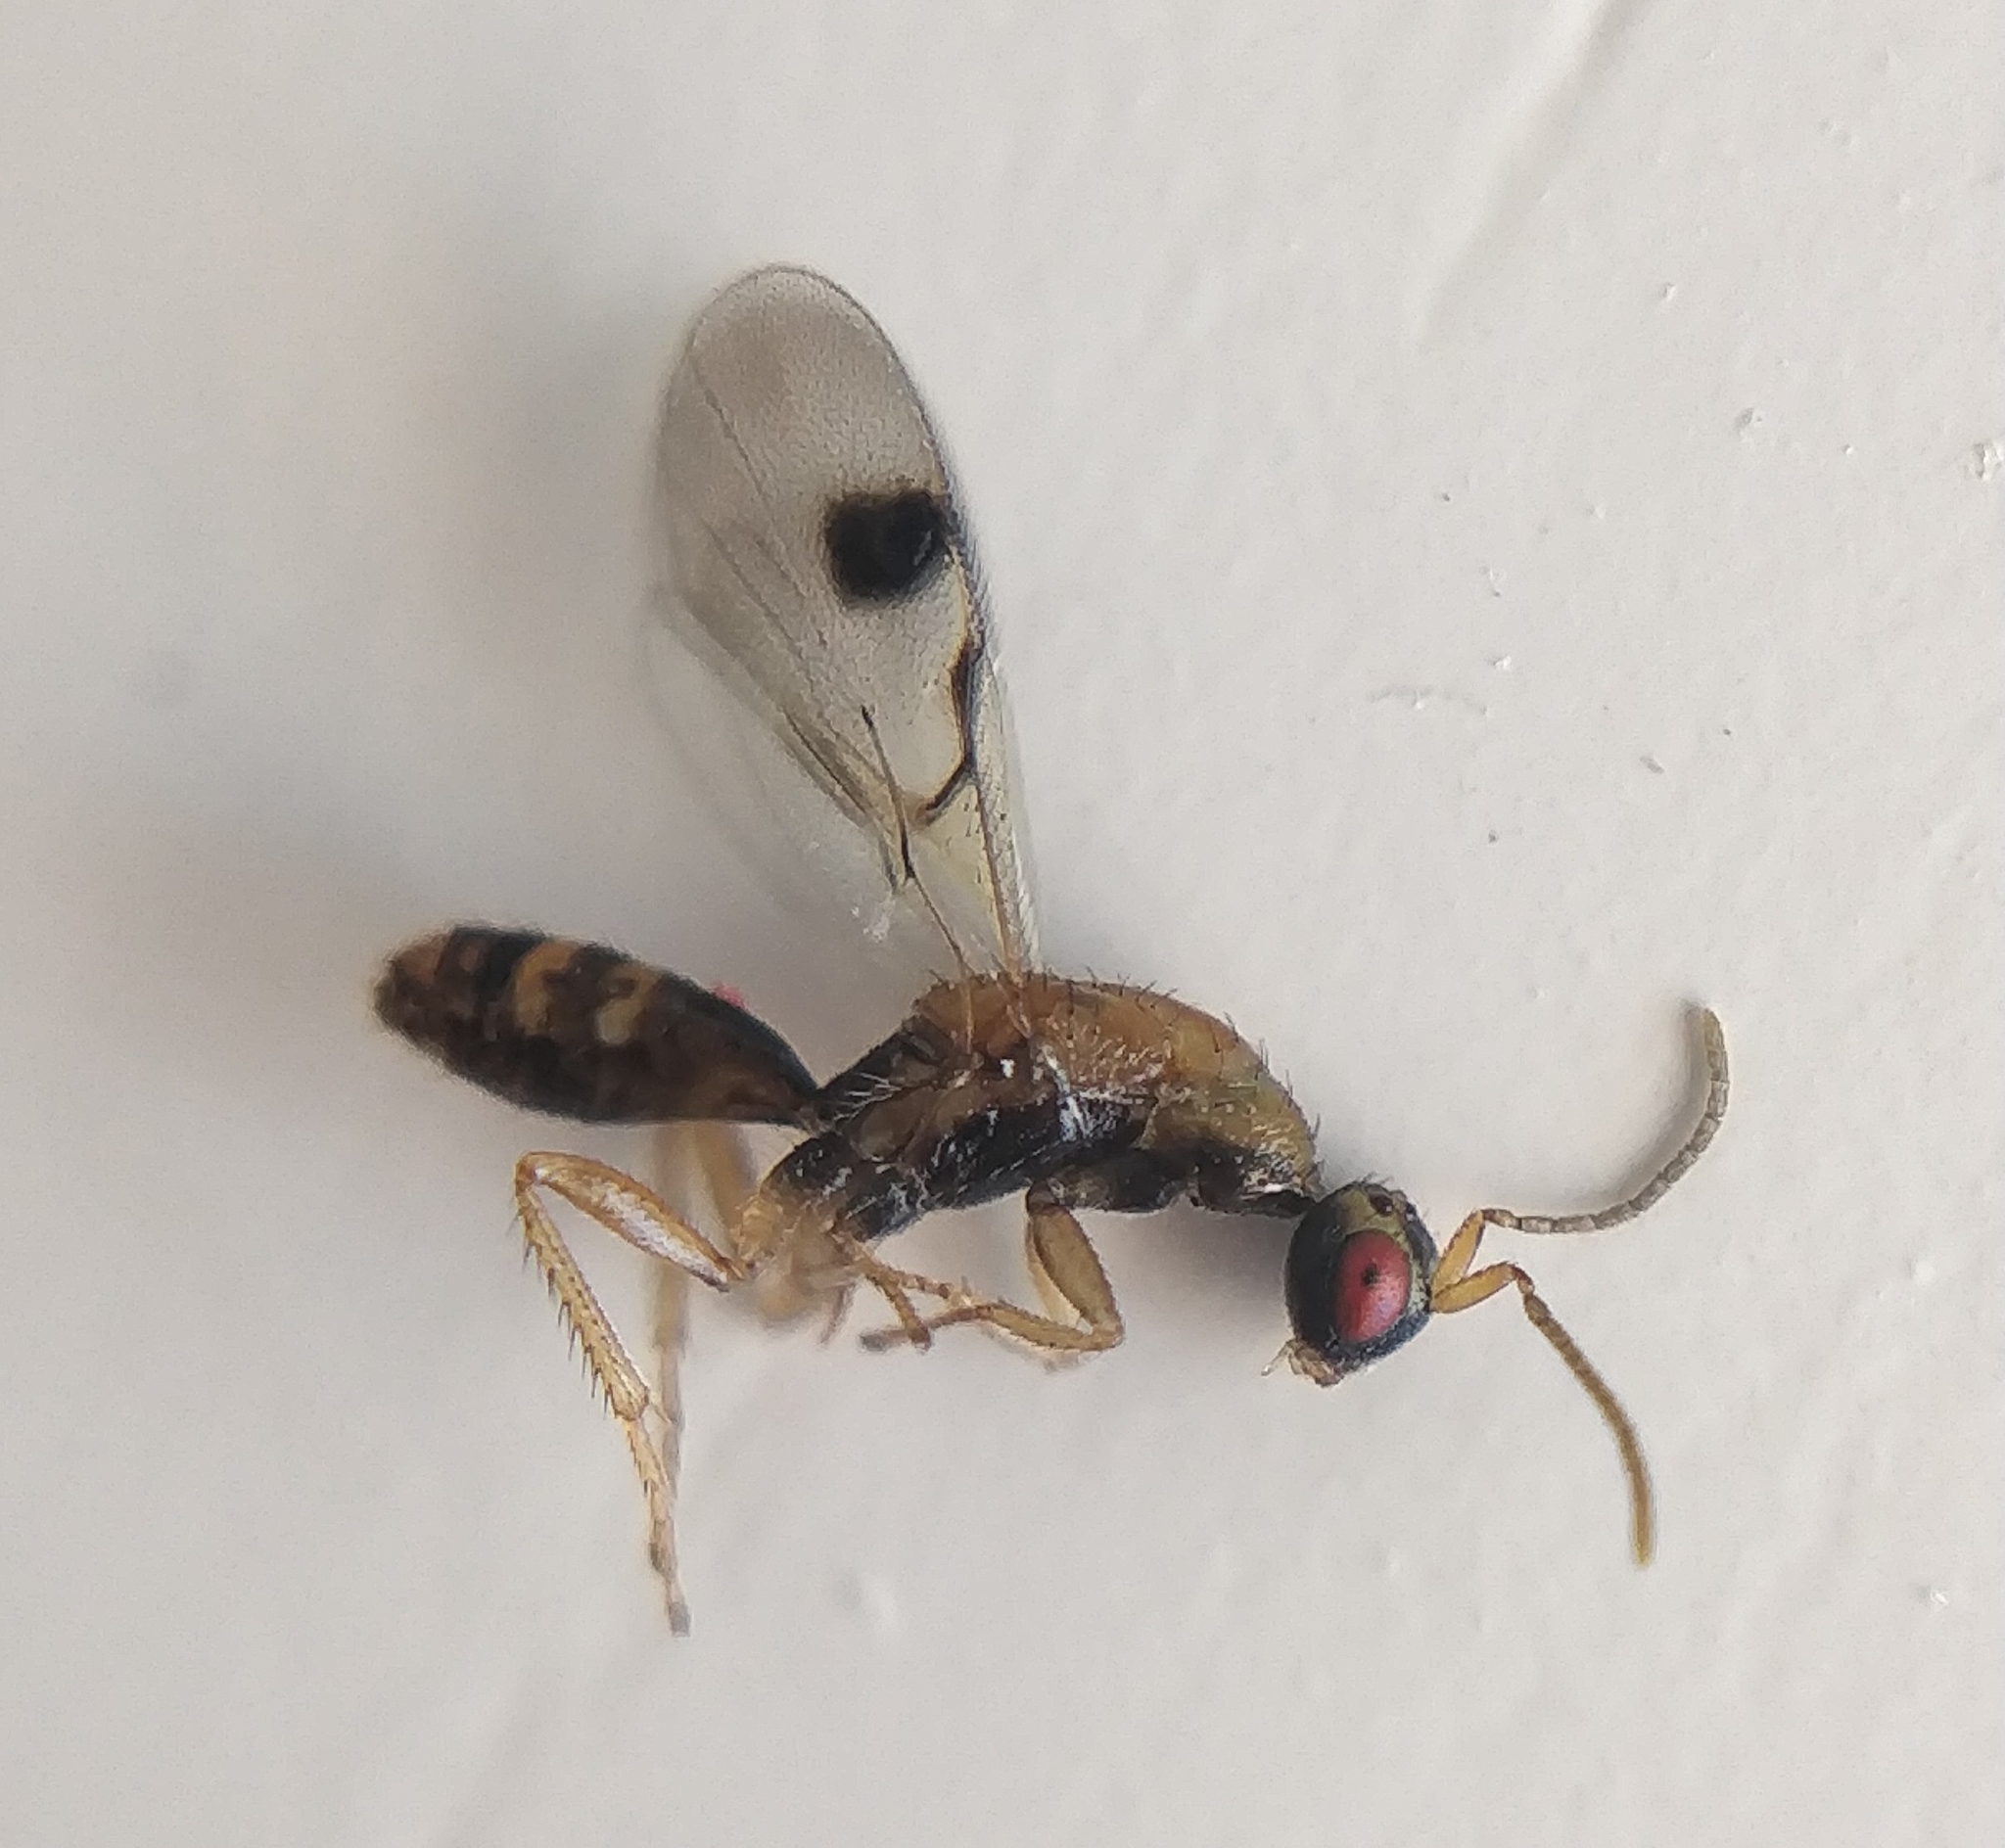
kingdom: Animalia
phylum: Arthropoda
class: Insecta
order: Hymenoptera
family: Torymidae
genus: Megastigmus
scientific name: Megastigmus transvaalensis
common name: Seed chalcid wasp
